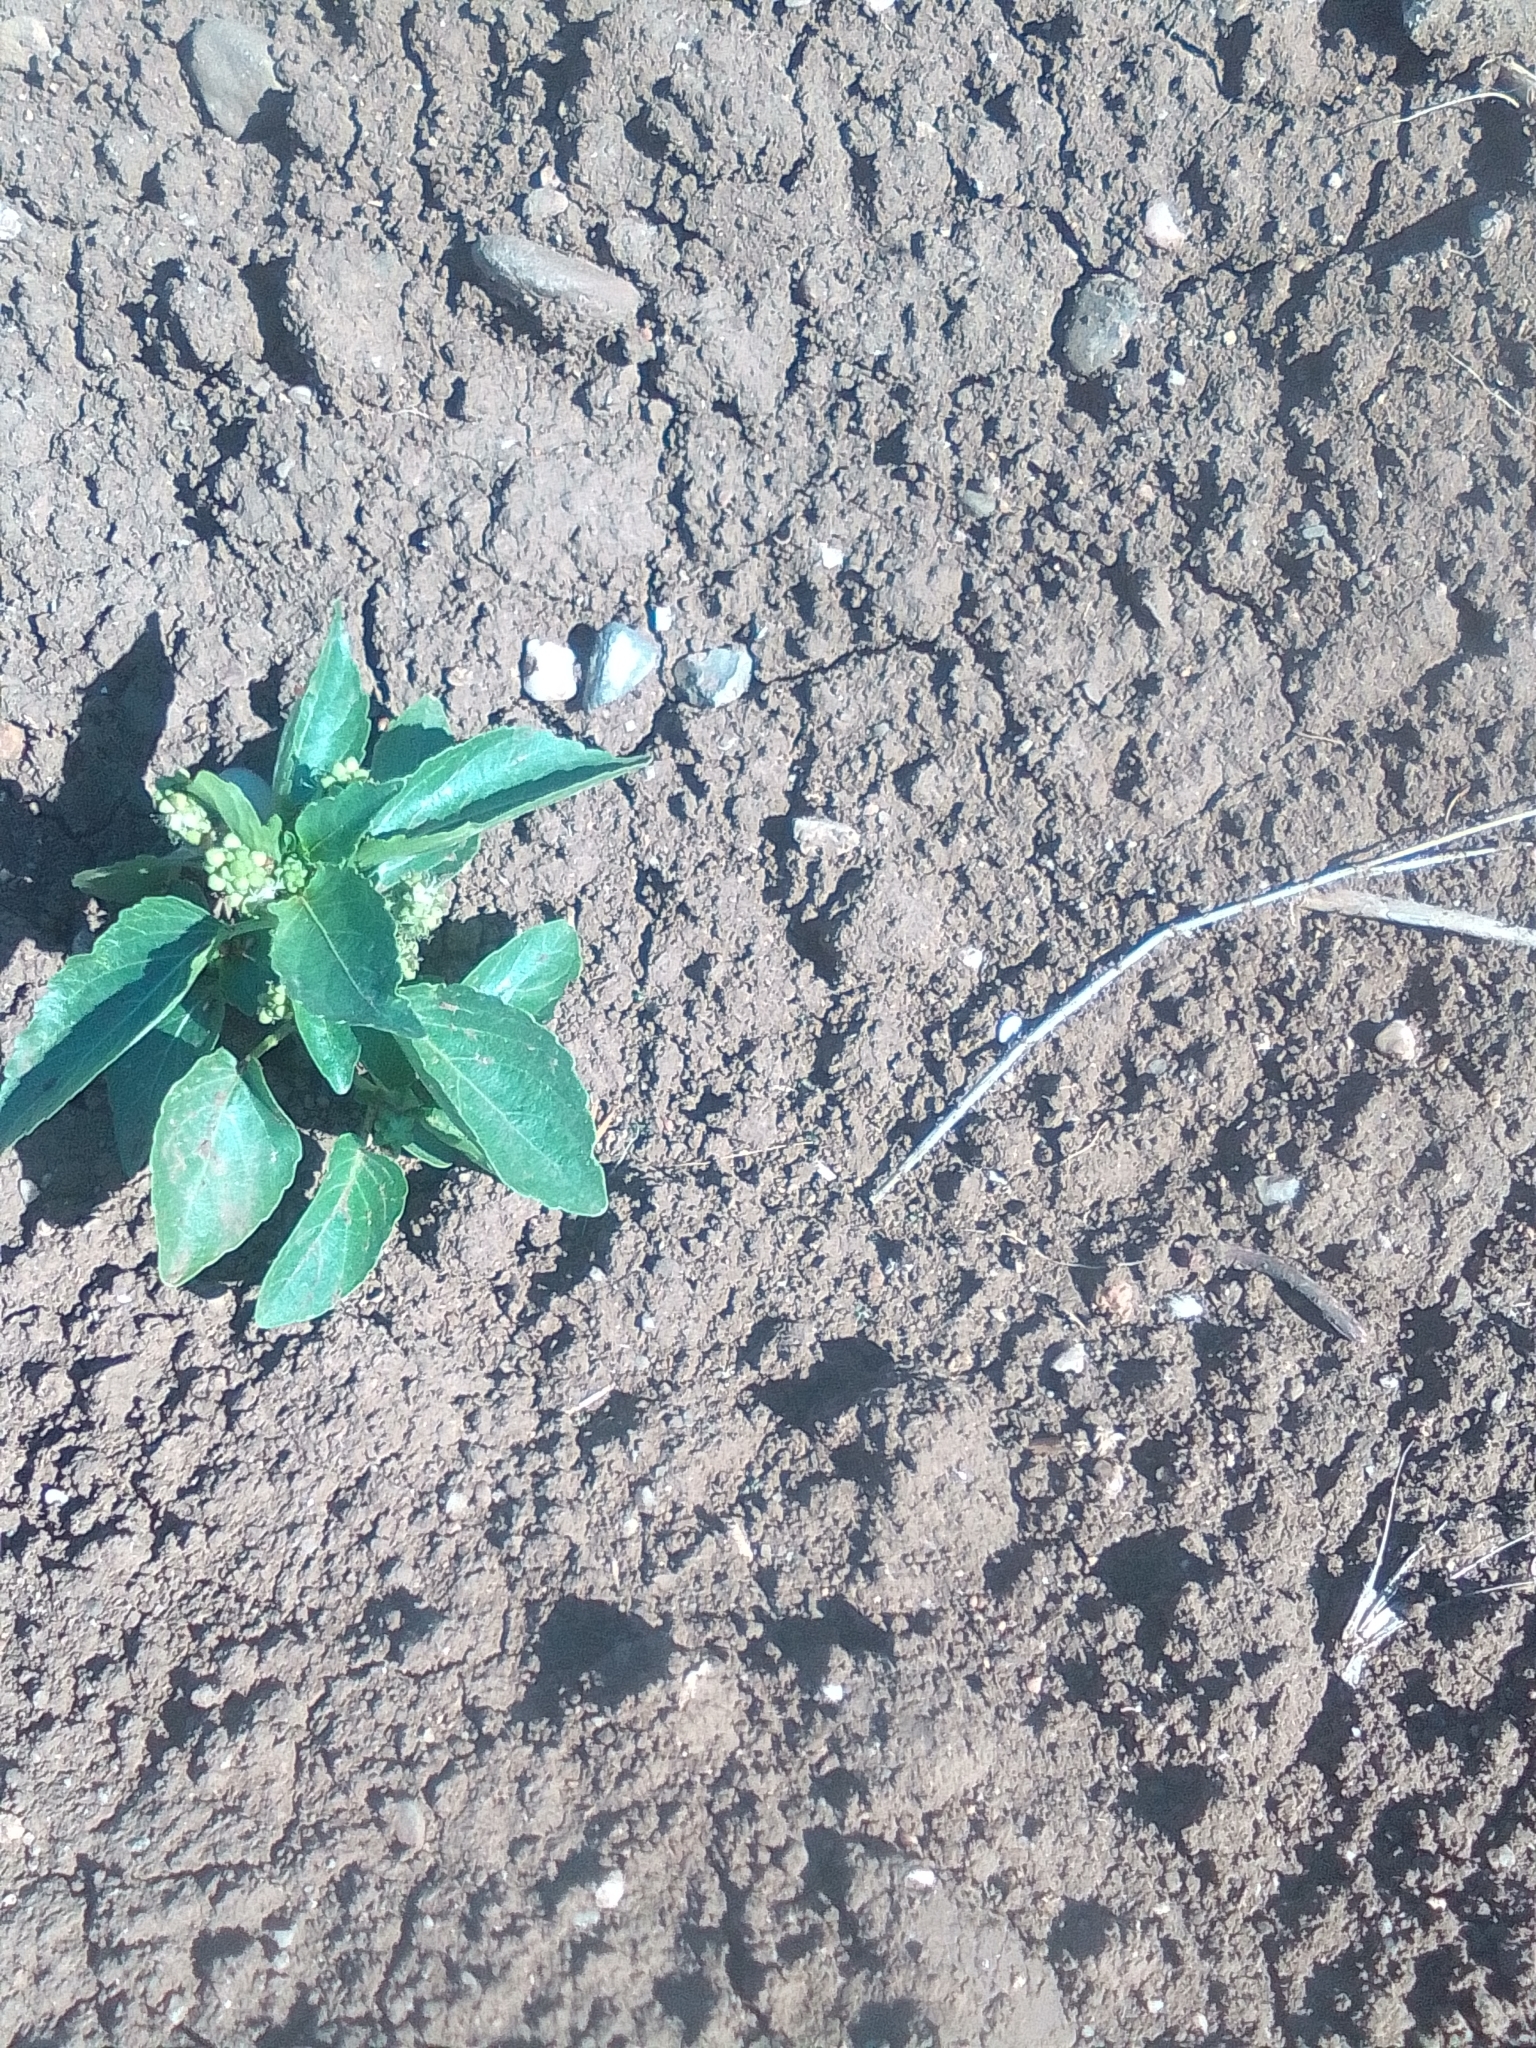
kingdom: Plantae
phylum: Tracheophyta
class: Magnoliopsida
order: Malpighiales
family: Euphorbiaceae
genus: Mercurialis
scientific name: Mercurialis annua
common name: Annual mercury
